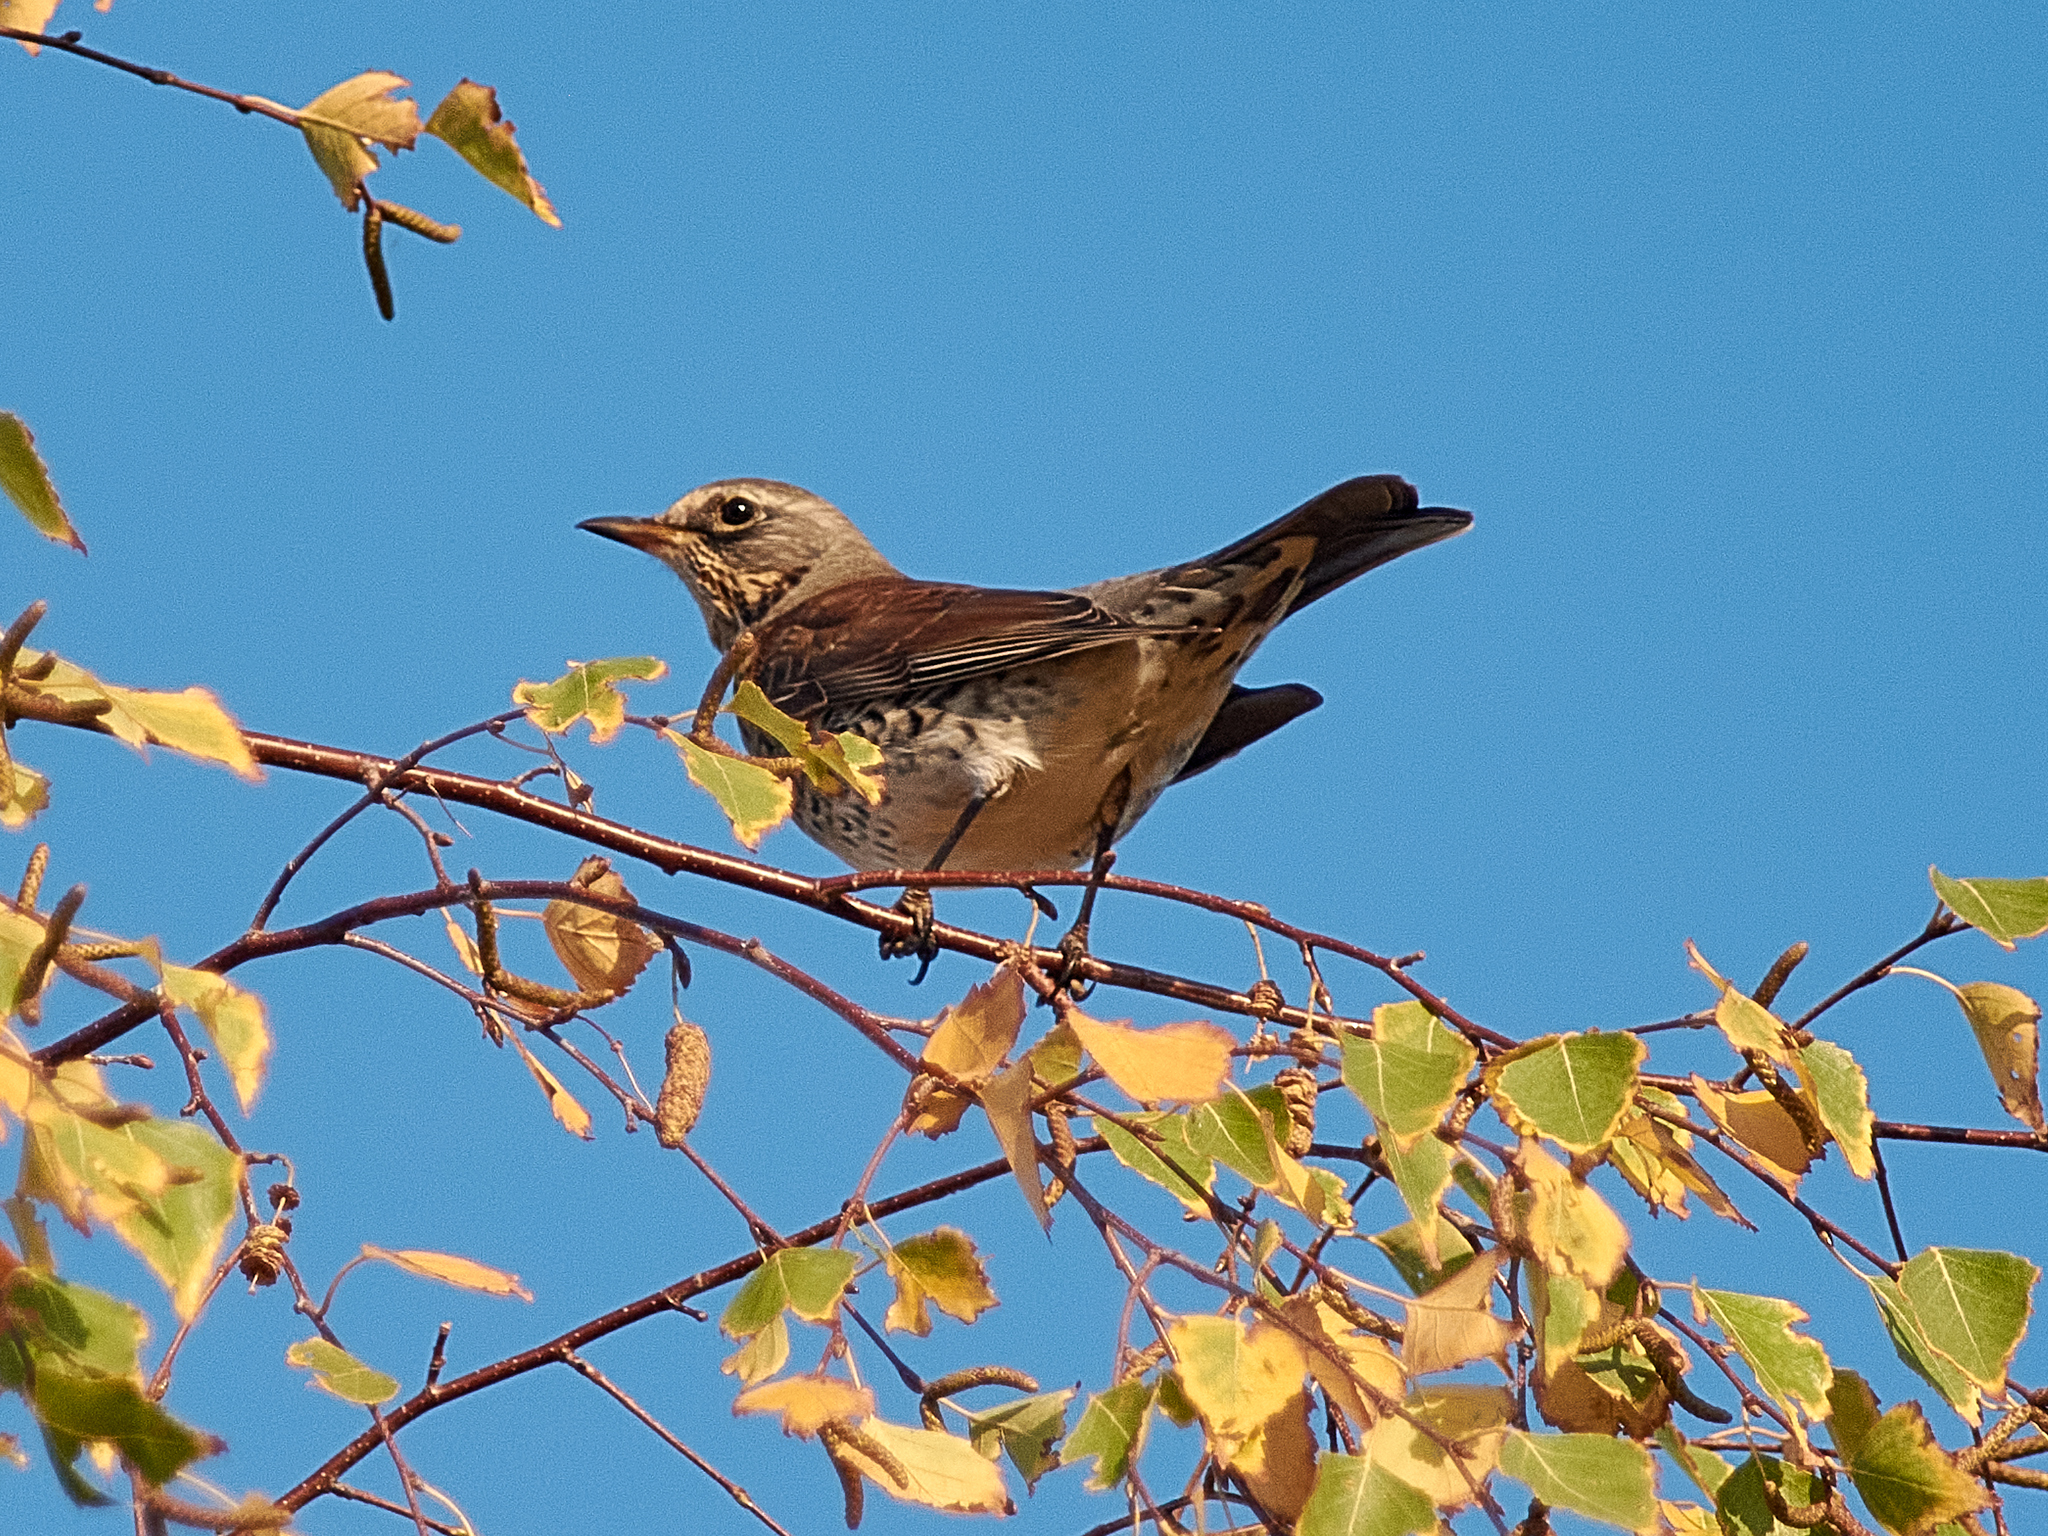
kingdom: Animalia
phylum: Chordata
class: Aves
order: Passeriformes
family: Turdidae
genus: Turdus
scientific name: Turdus pilaris
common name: Fieldfare
